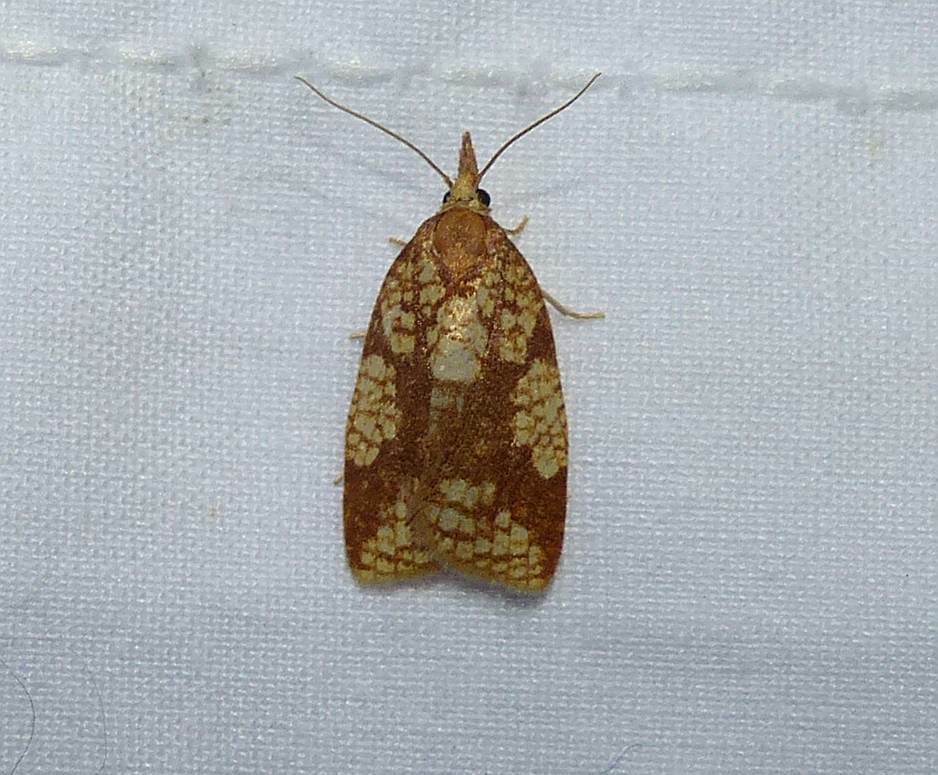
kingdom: Animalia
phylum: Arthropoda
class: Insecta
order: Lepidoptera
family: Tortricidae
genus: Cenopis
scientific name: Cenopis ferreana
